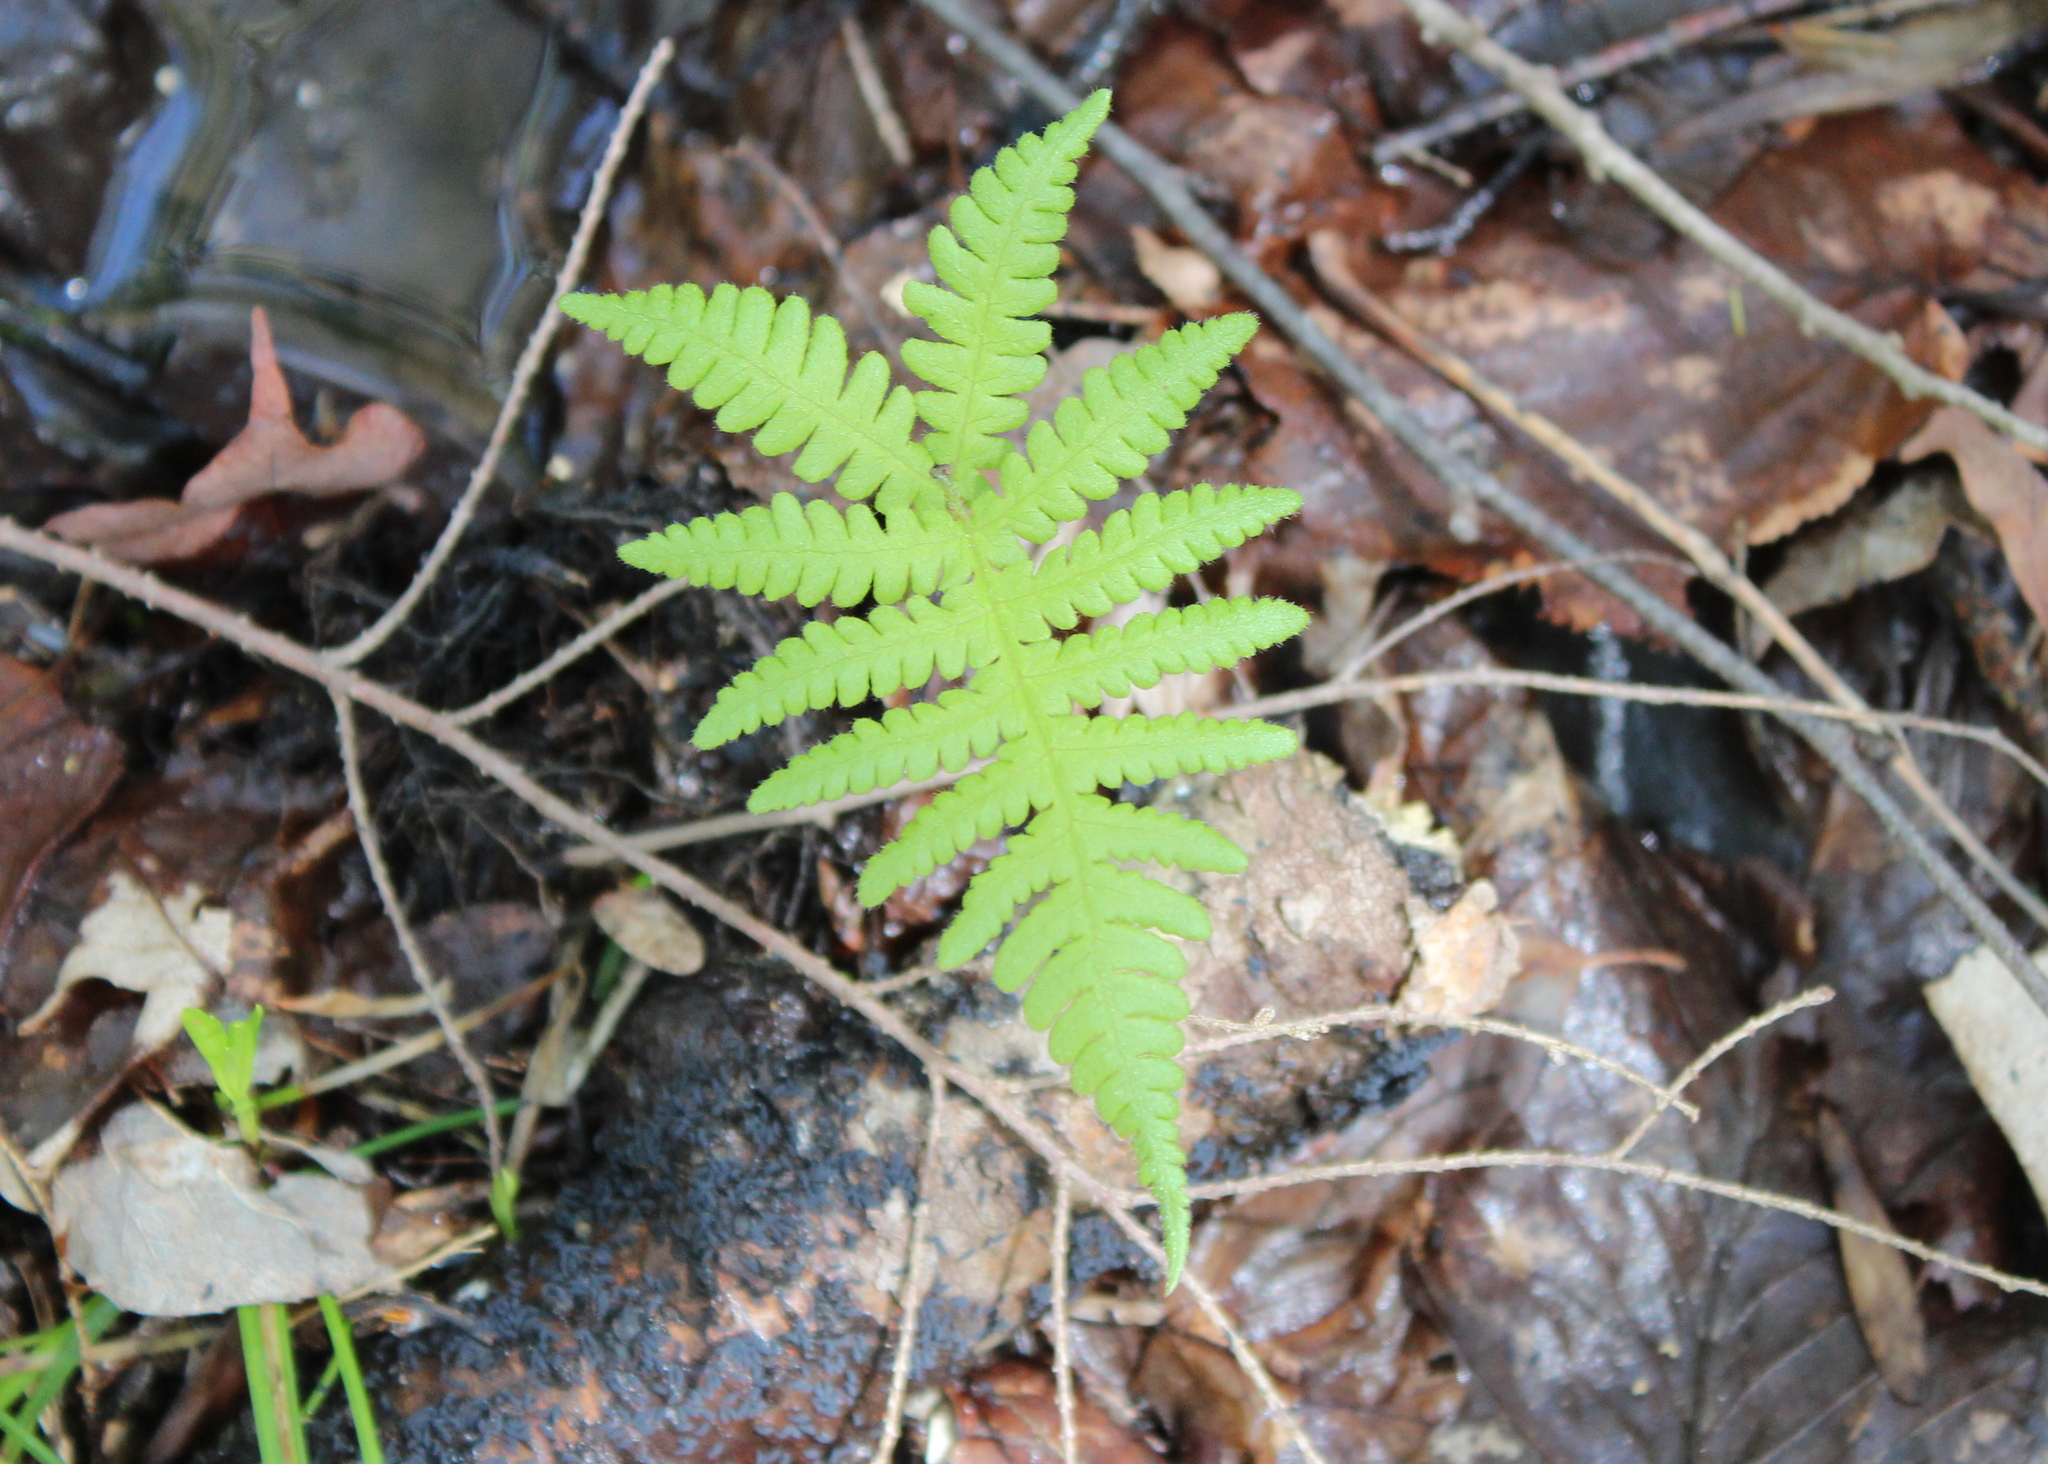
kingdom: Plantae
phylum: Tracheophyta
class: Polypodiopsida
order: Polypodiales
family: Thelypteridaceae
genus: Phegopteris
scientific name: Phegopteris connectilis
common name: Beech fern
